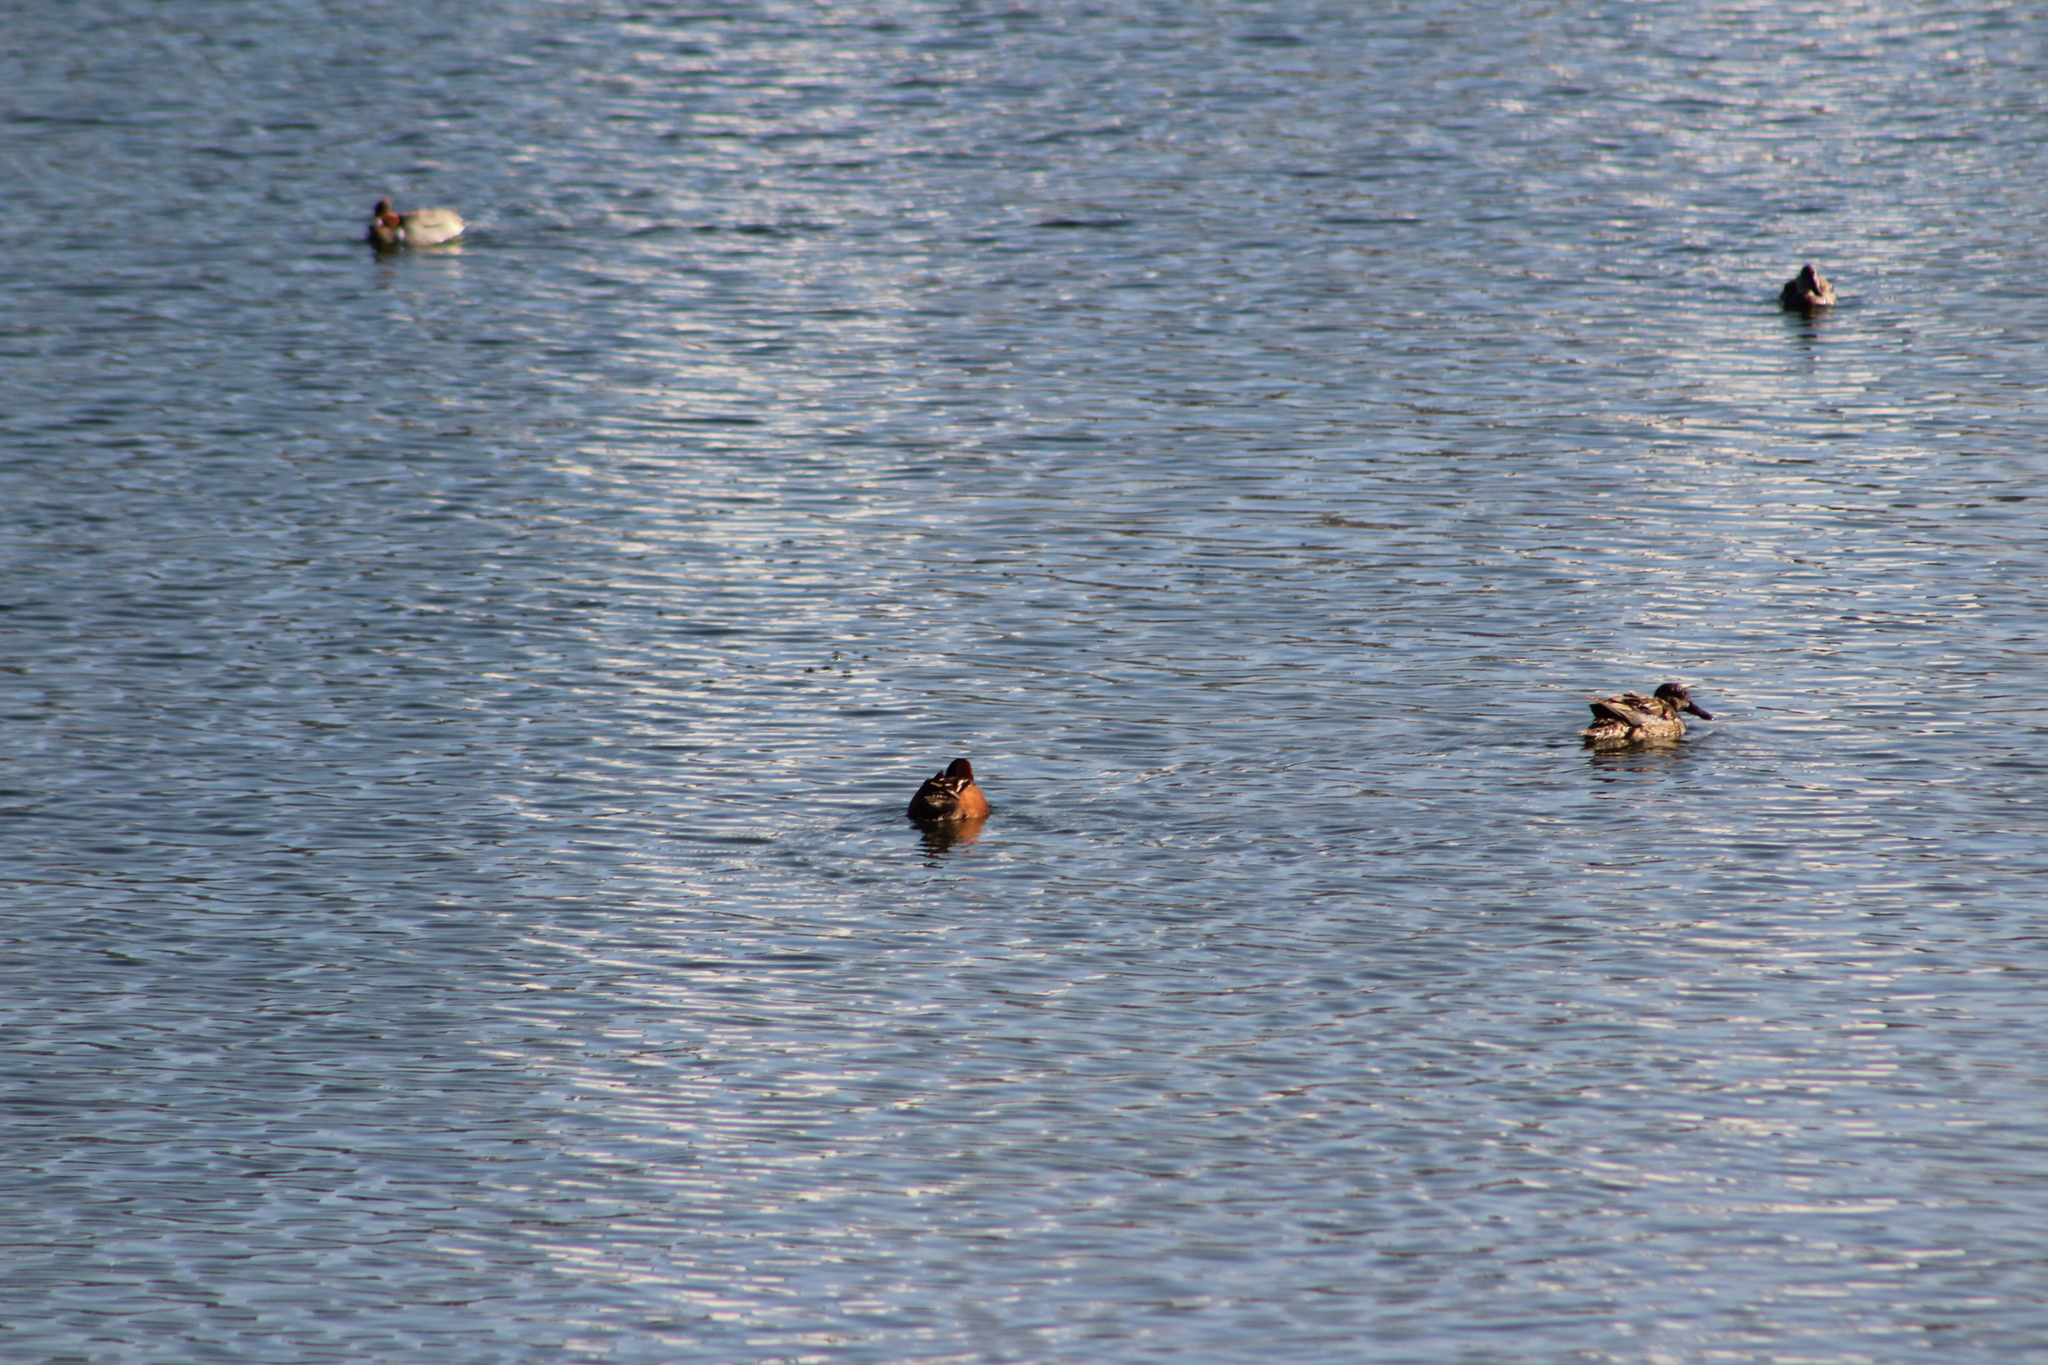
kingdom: Animalia
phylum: Chordata
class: Aves
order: Anseriformes
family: Anatidae
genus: Spatula
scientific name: Spatula cyanoptera
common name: Cinnamon teal
